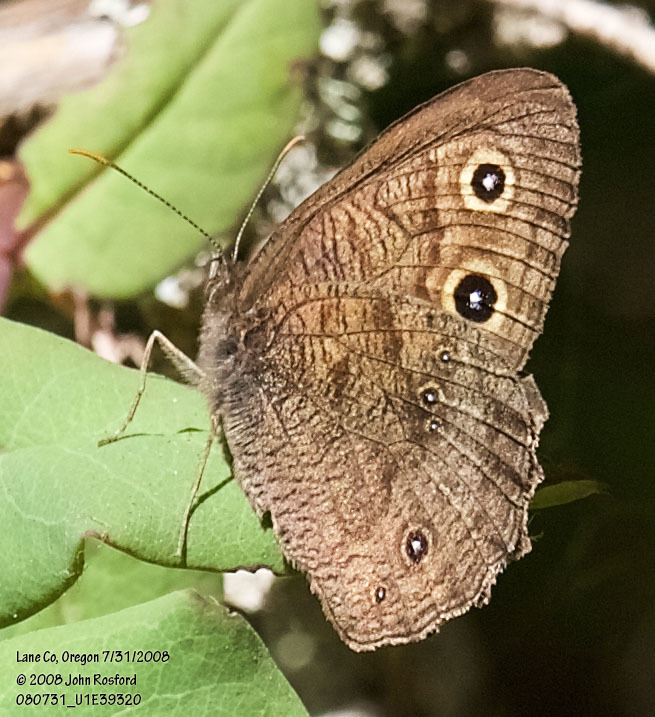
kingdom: Animalia
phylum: Arthropoda
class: Insecta
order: Lepidoptera
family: Nymphalidae
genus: Cercyonis
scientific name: Cercyonis pegala
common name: Common wood-nymph
